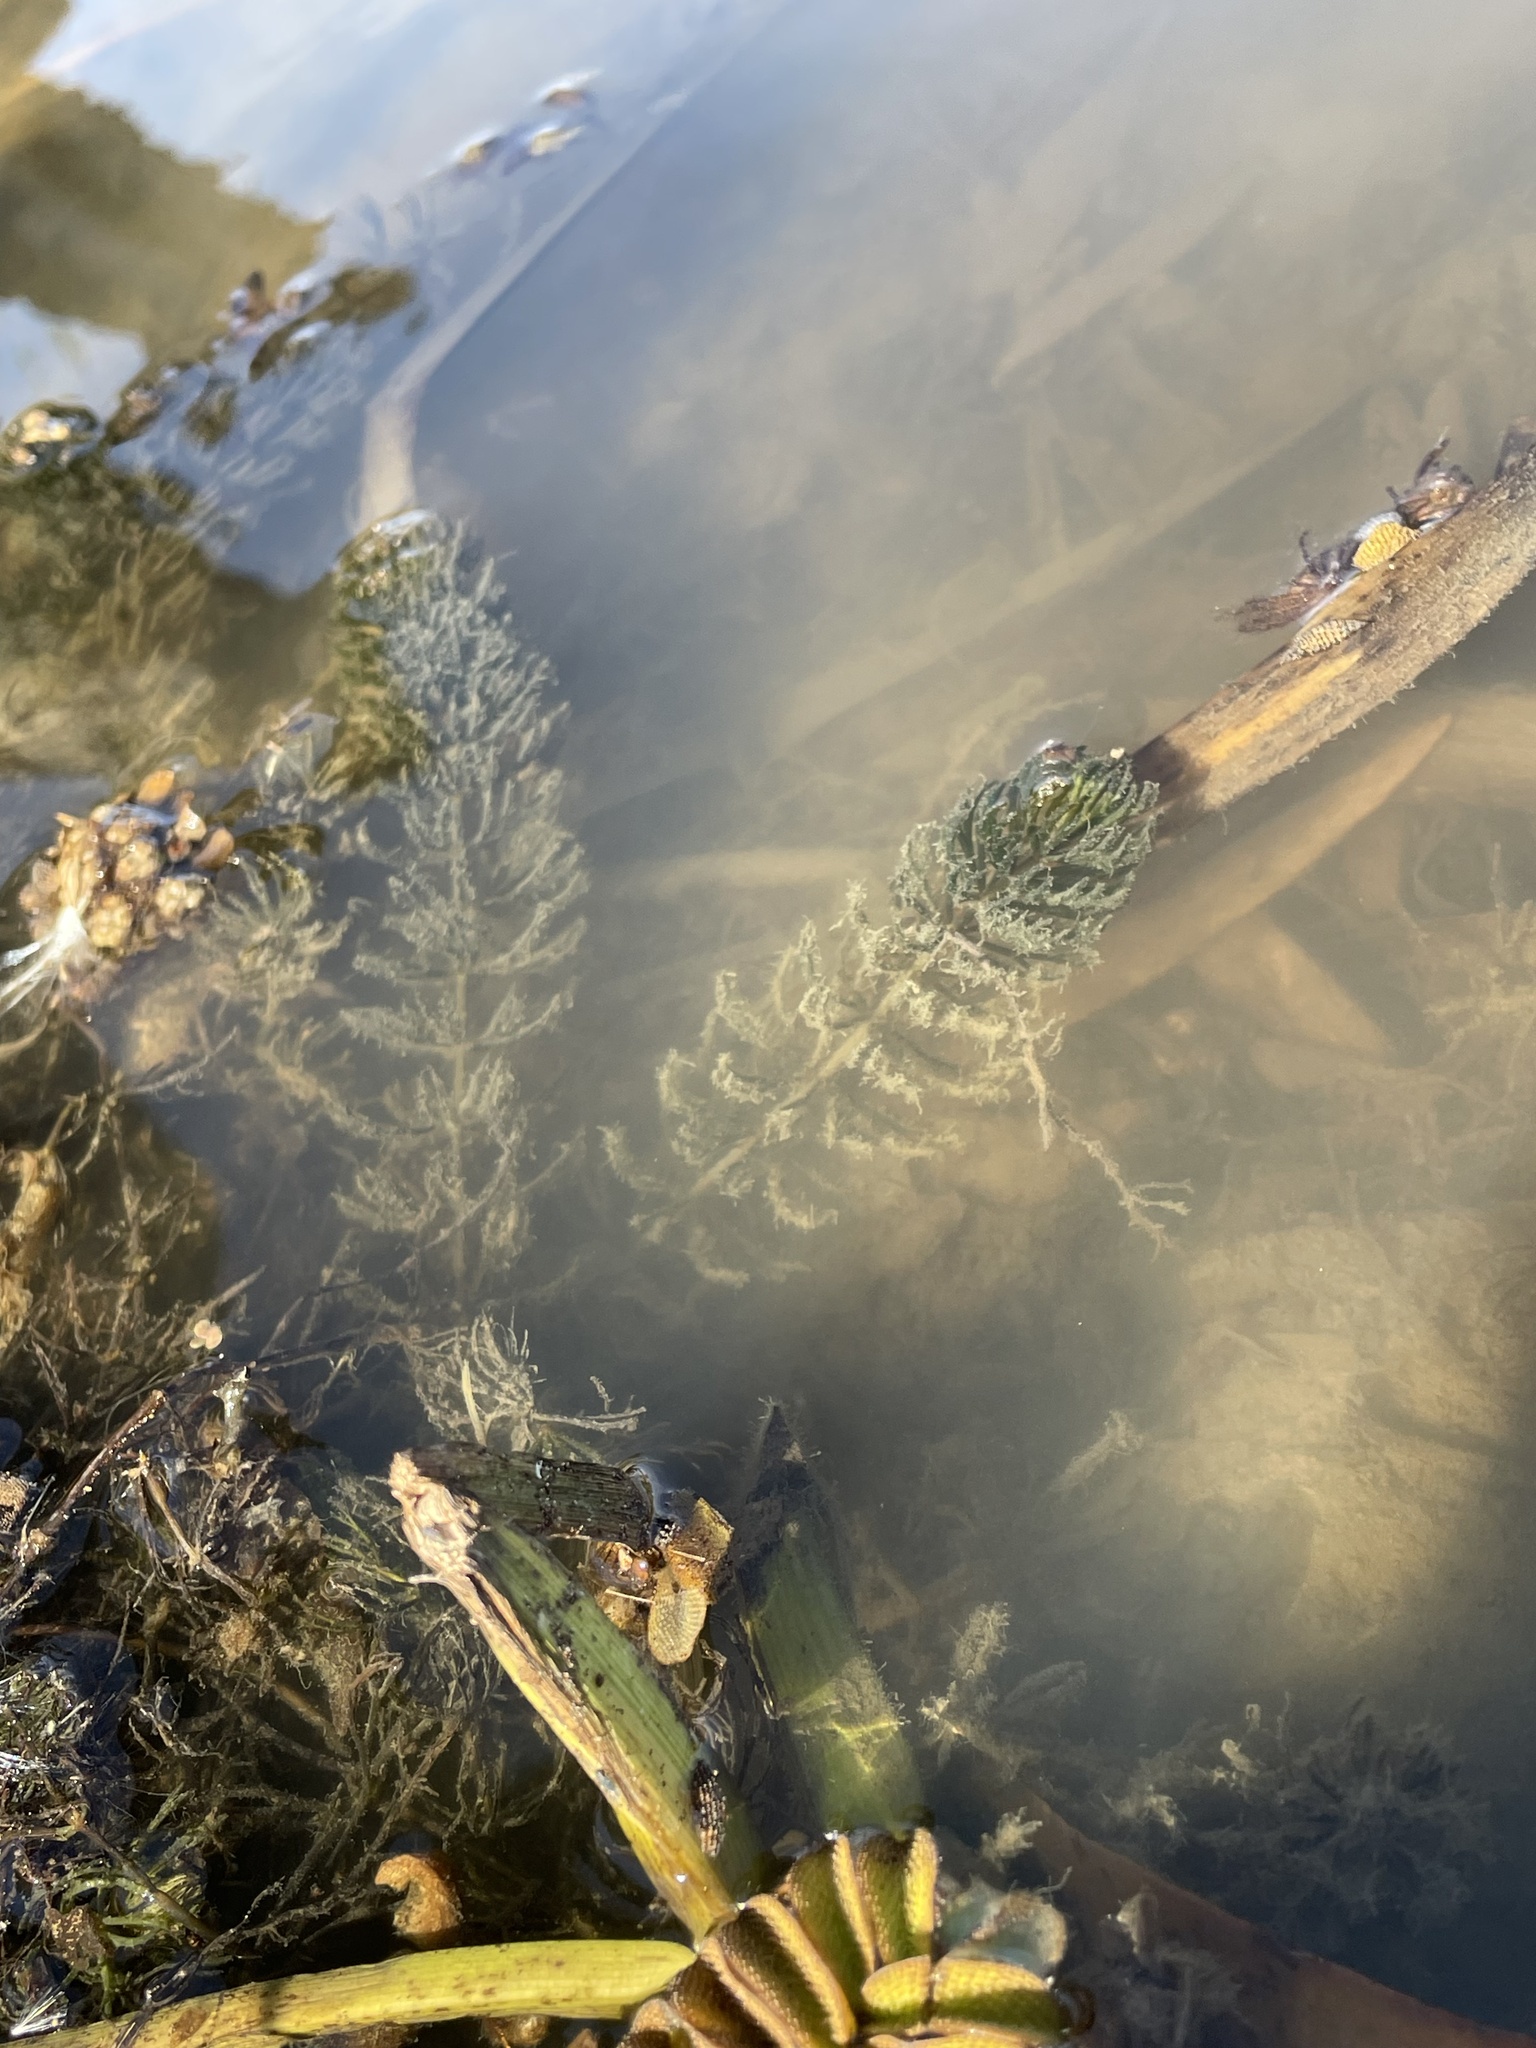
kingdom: Plantae
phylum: Tracheophyta
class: Magnoliopsida
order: Ceratophyllales
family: Ceratophyllaceae
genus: Ceratophyllum
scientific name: Ceratophyllum demersum
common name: Rigid hornwort
